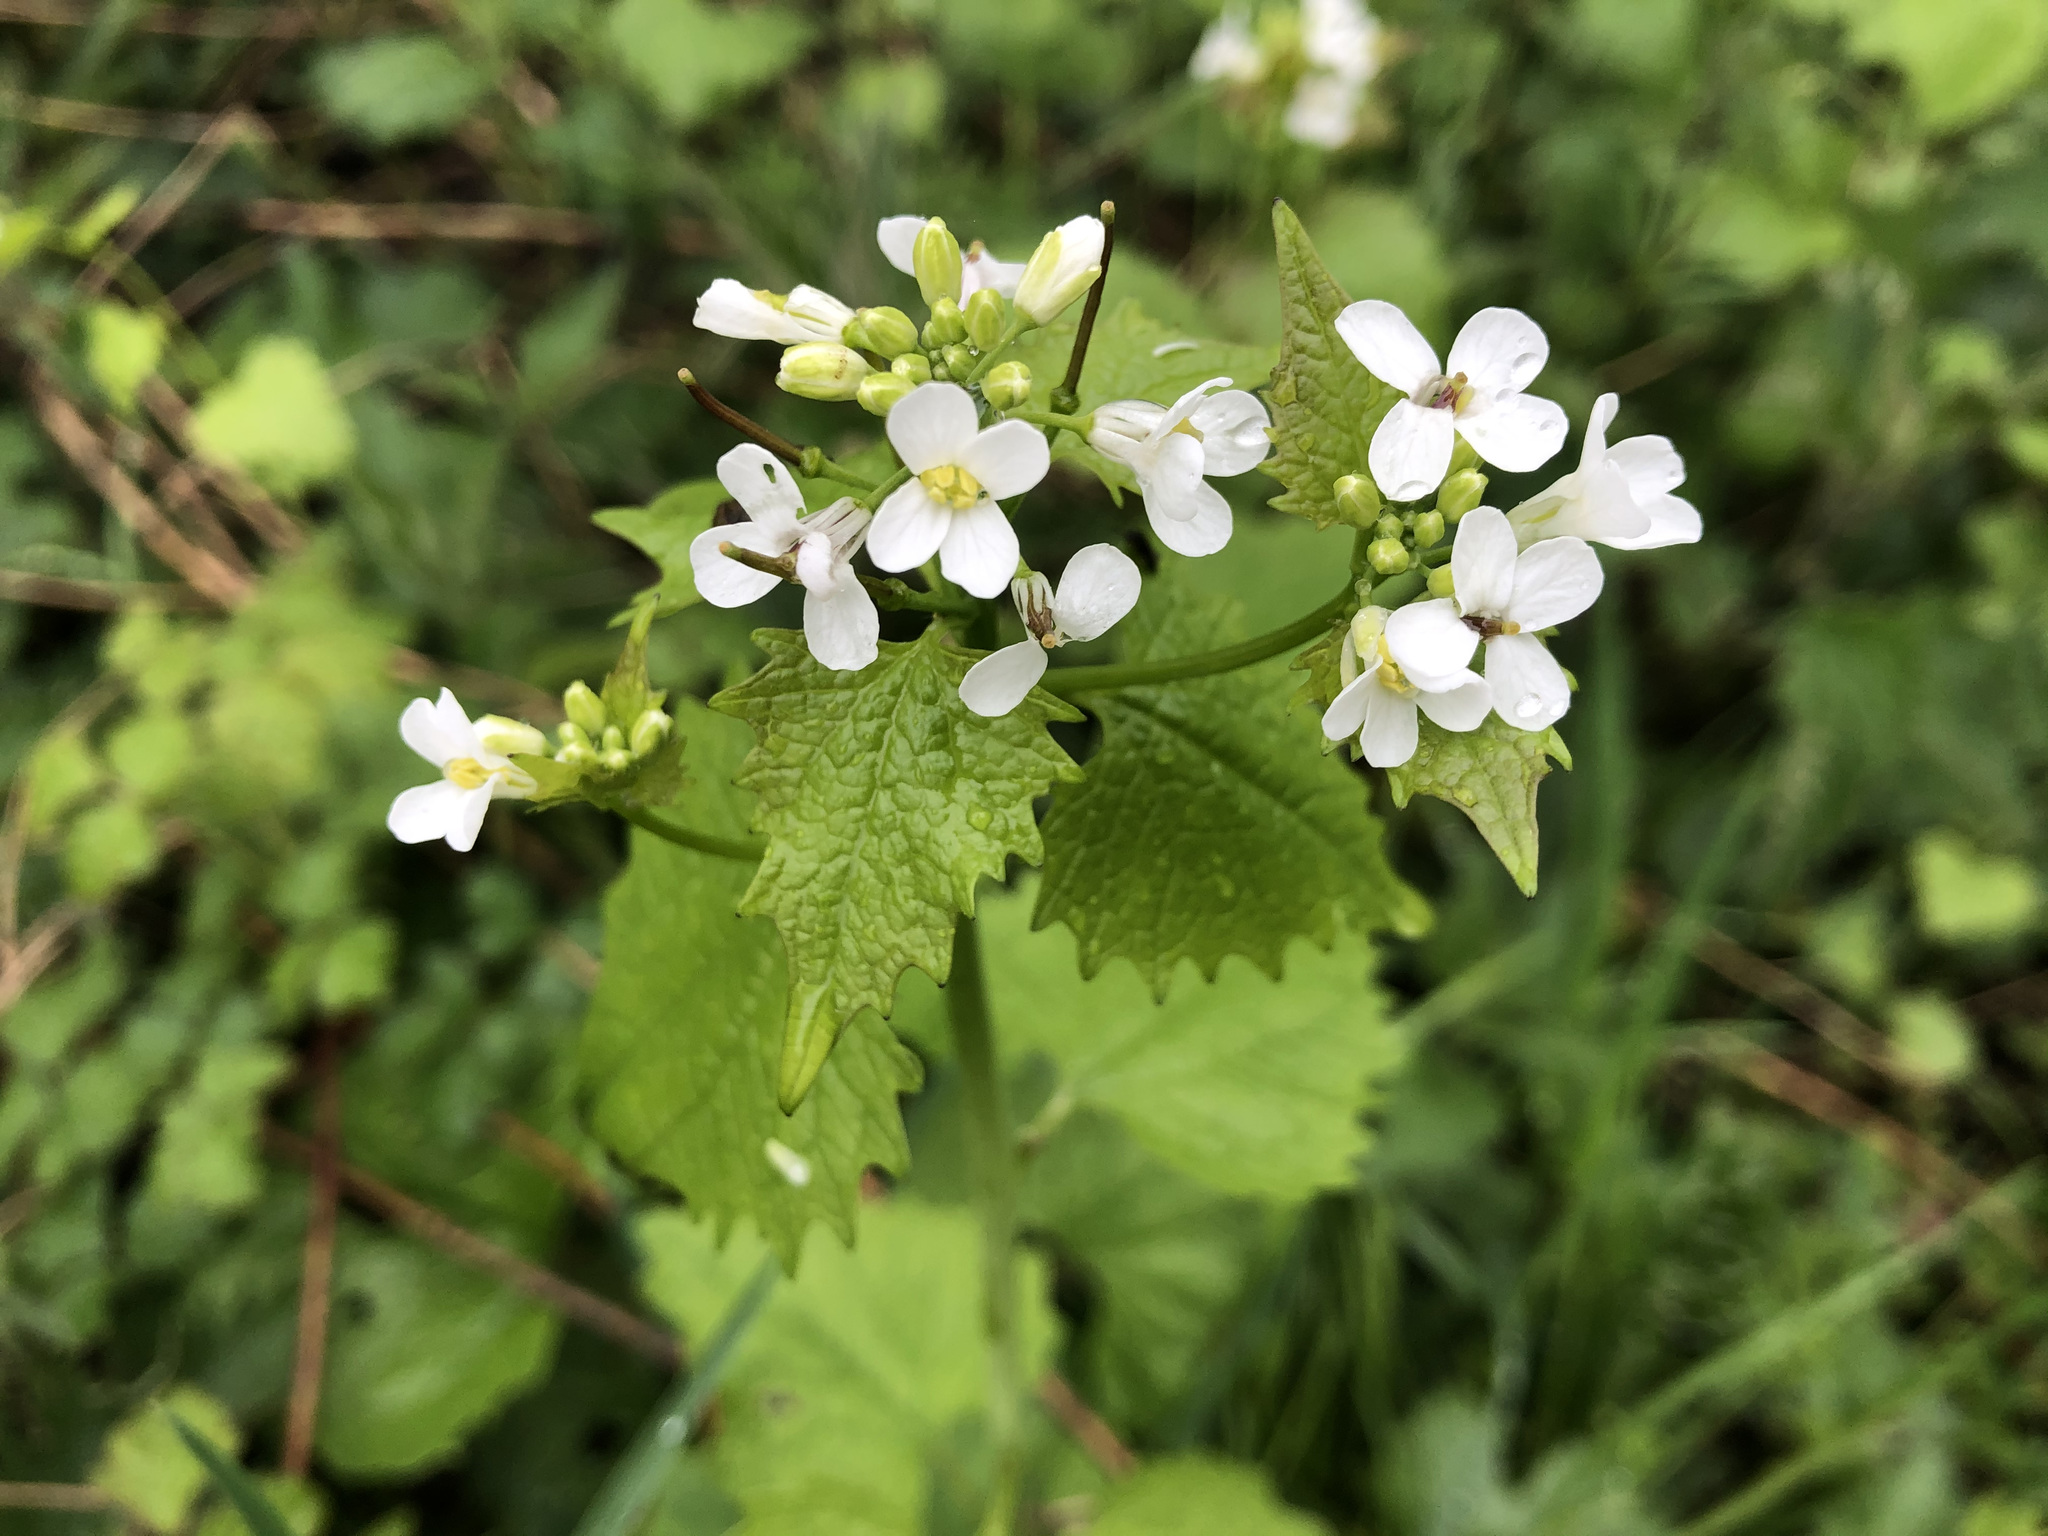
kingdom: Plantae
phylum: Tracheophyta
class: Magnoliopsida
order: Brassicales
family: Brassicaceae
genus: Alliaria
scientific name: Alliaria petiolata
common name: Garlic mustard
